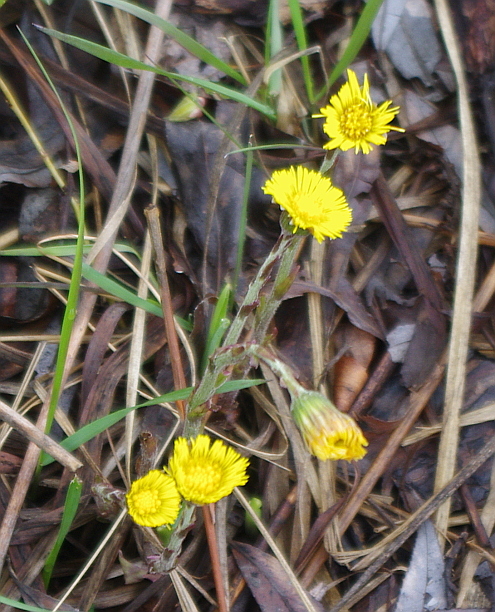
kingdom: Plantae
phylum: Tracheophyta
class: Magnoliopsida
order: Asterales
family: Asteraceae
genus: Tussilago
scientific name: Tussilago farfara
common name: Coltsfoot
